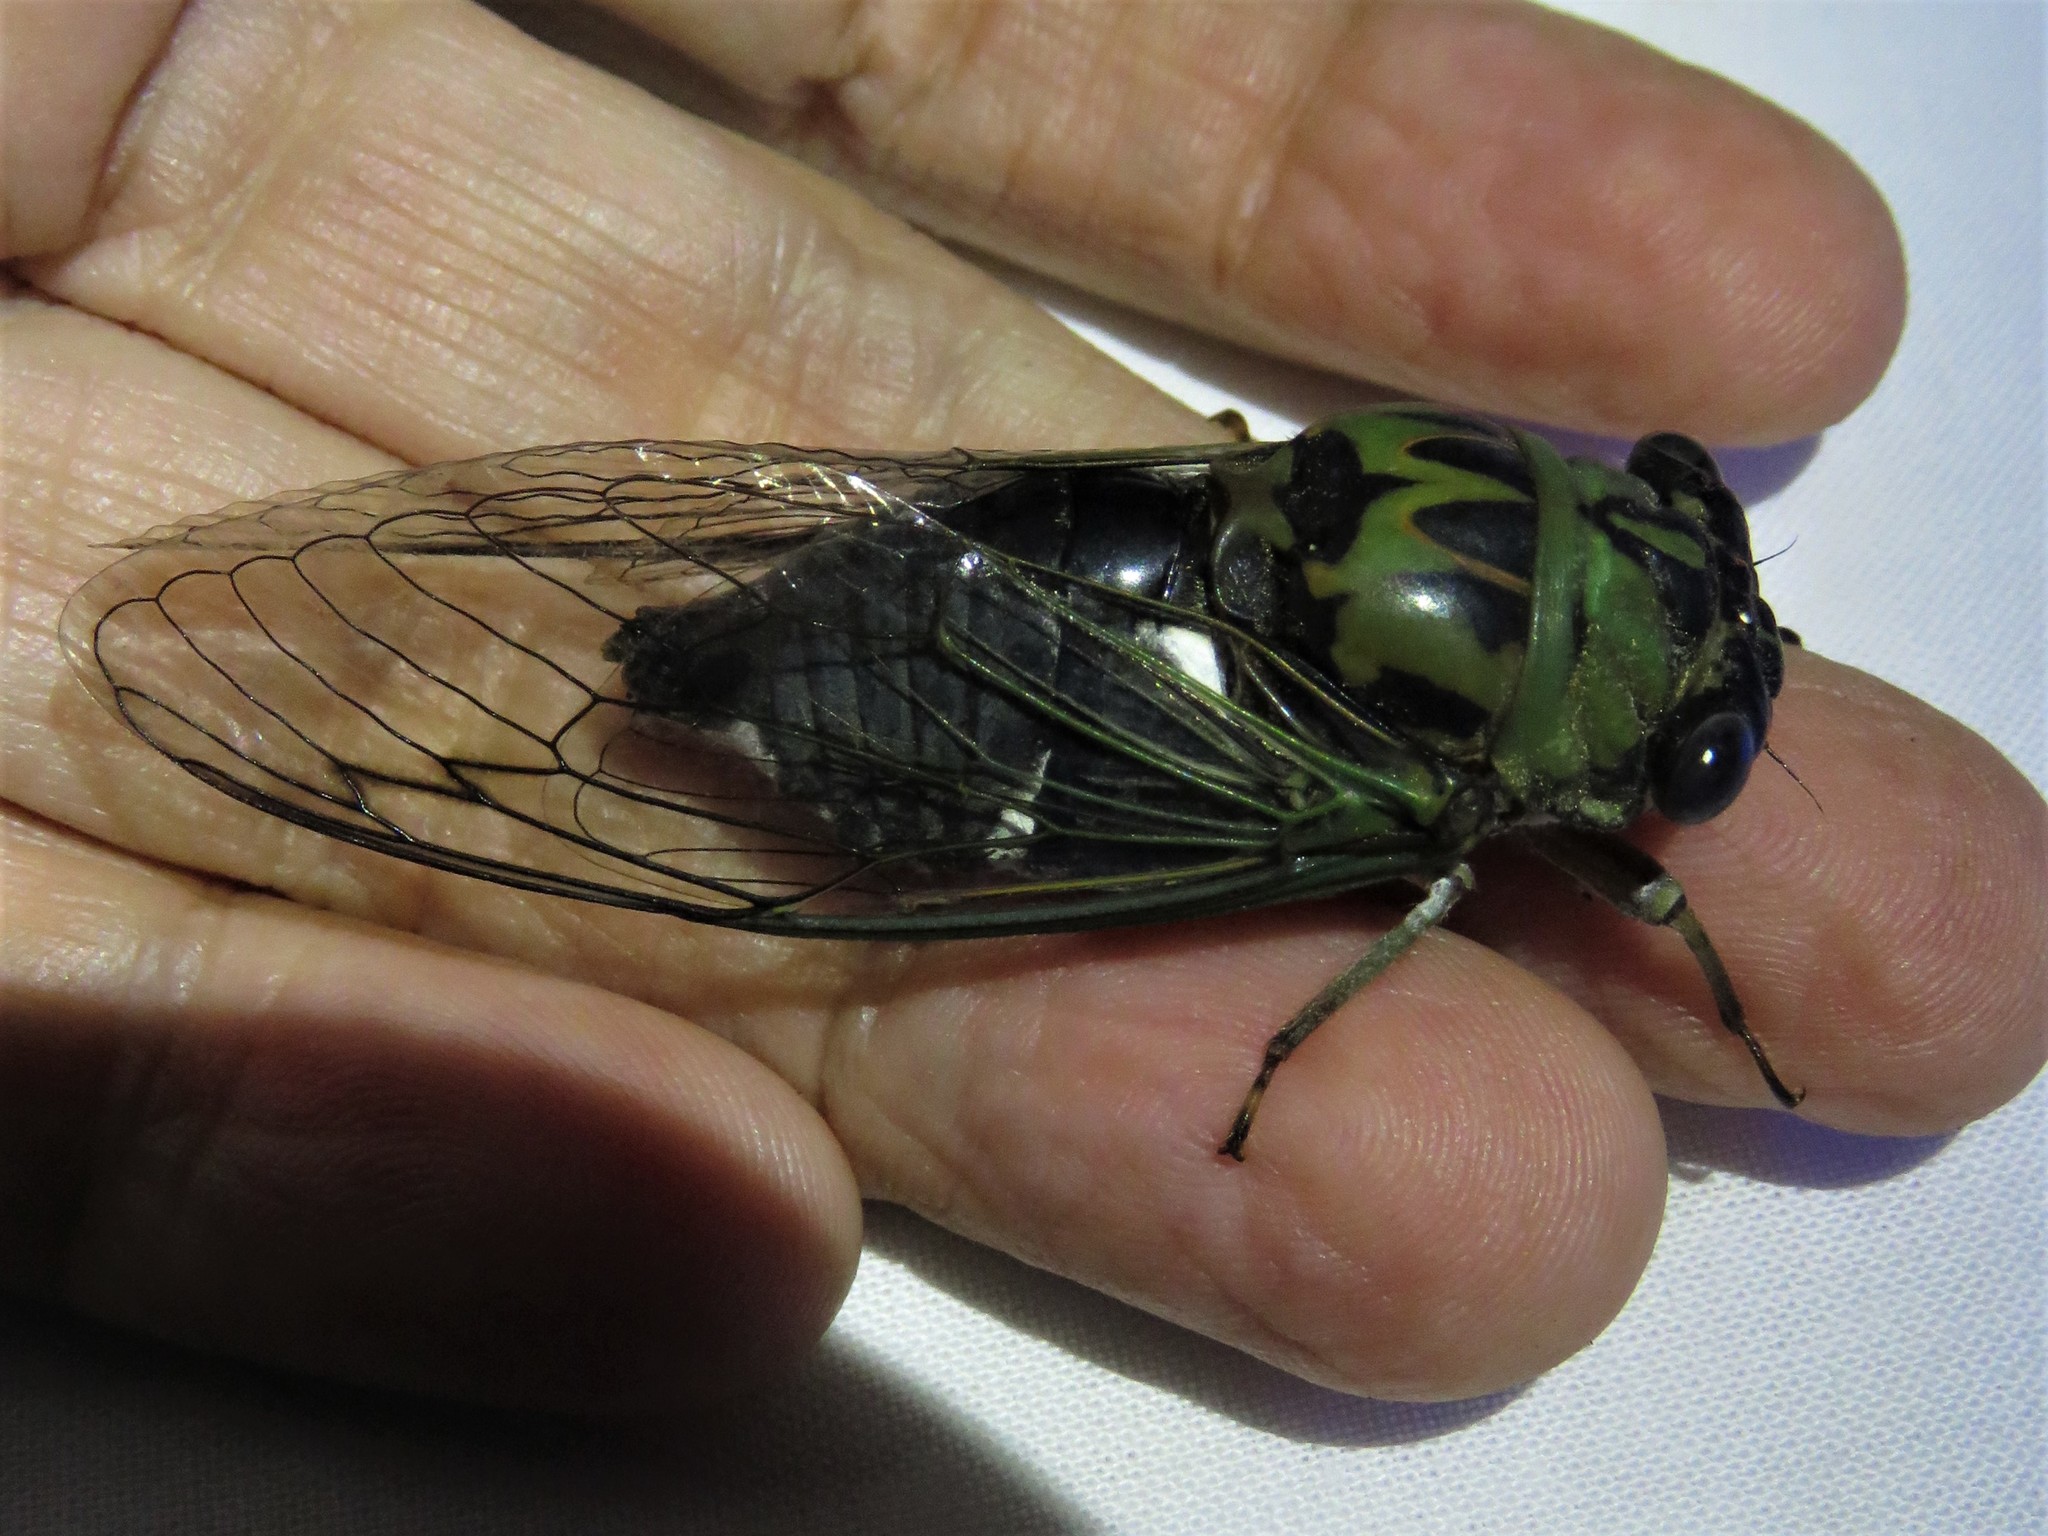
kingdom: Animalia
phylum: Arthropoda
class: Insecta
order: Hemiptera
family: Cicadidae
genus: Neotibicen
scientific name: Neotibicen pruinosus
